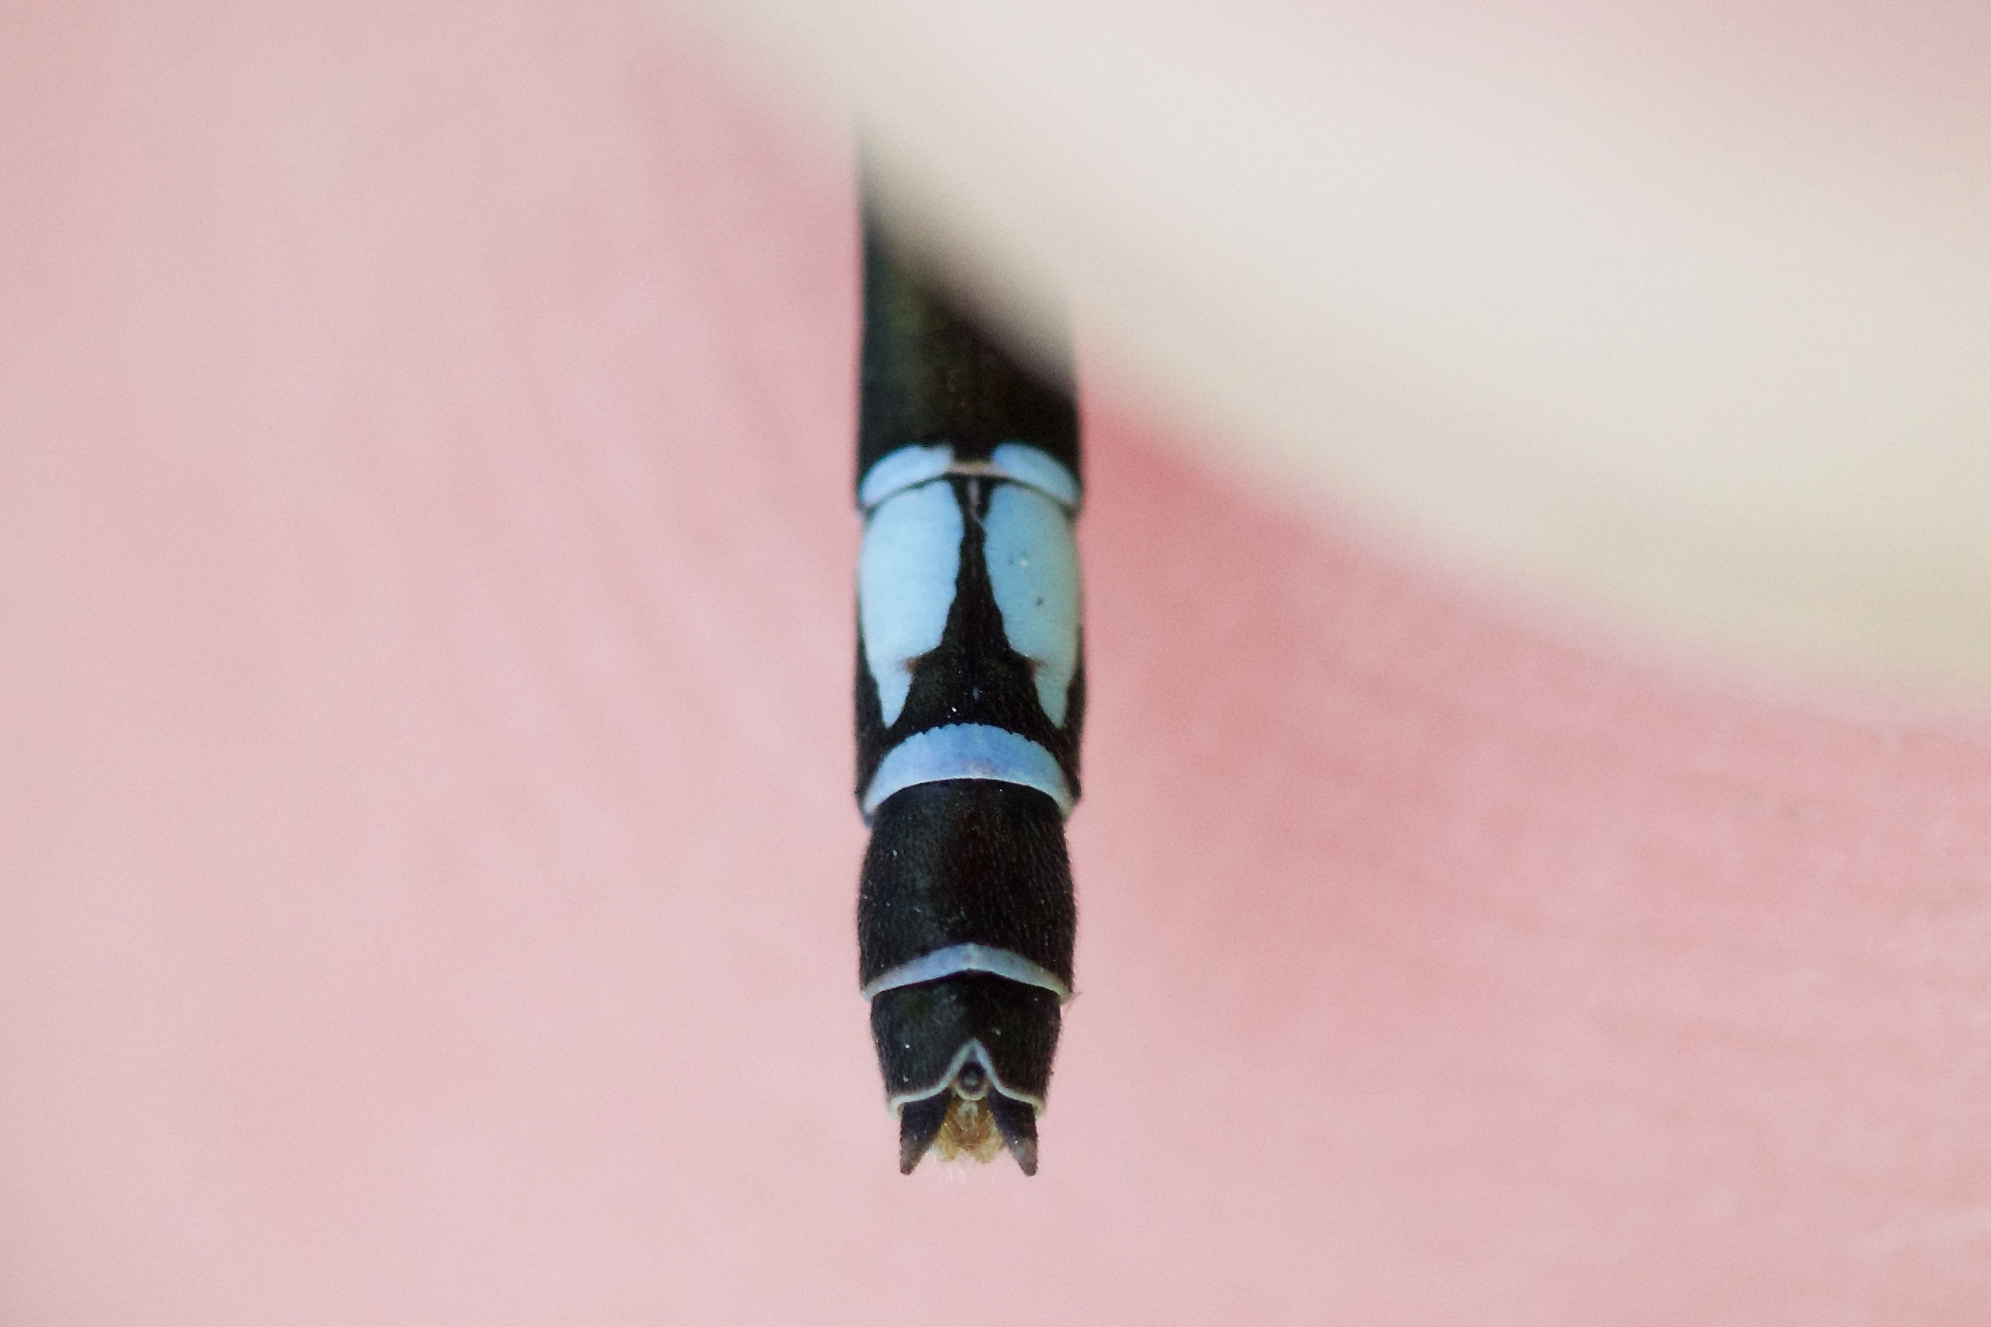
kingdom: Animalia
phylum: Arthropoda
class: Insecta
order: Odonata
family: Coenagrionidae
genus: Enallagma
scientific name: Enallagma geminatum
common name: Skimming bluet
